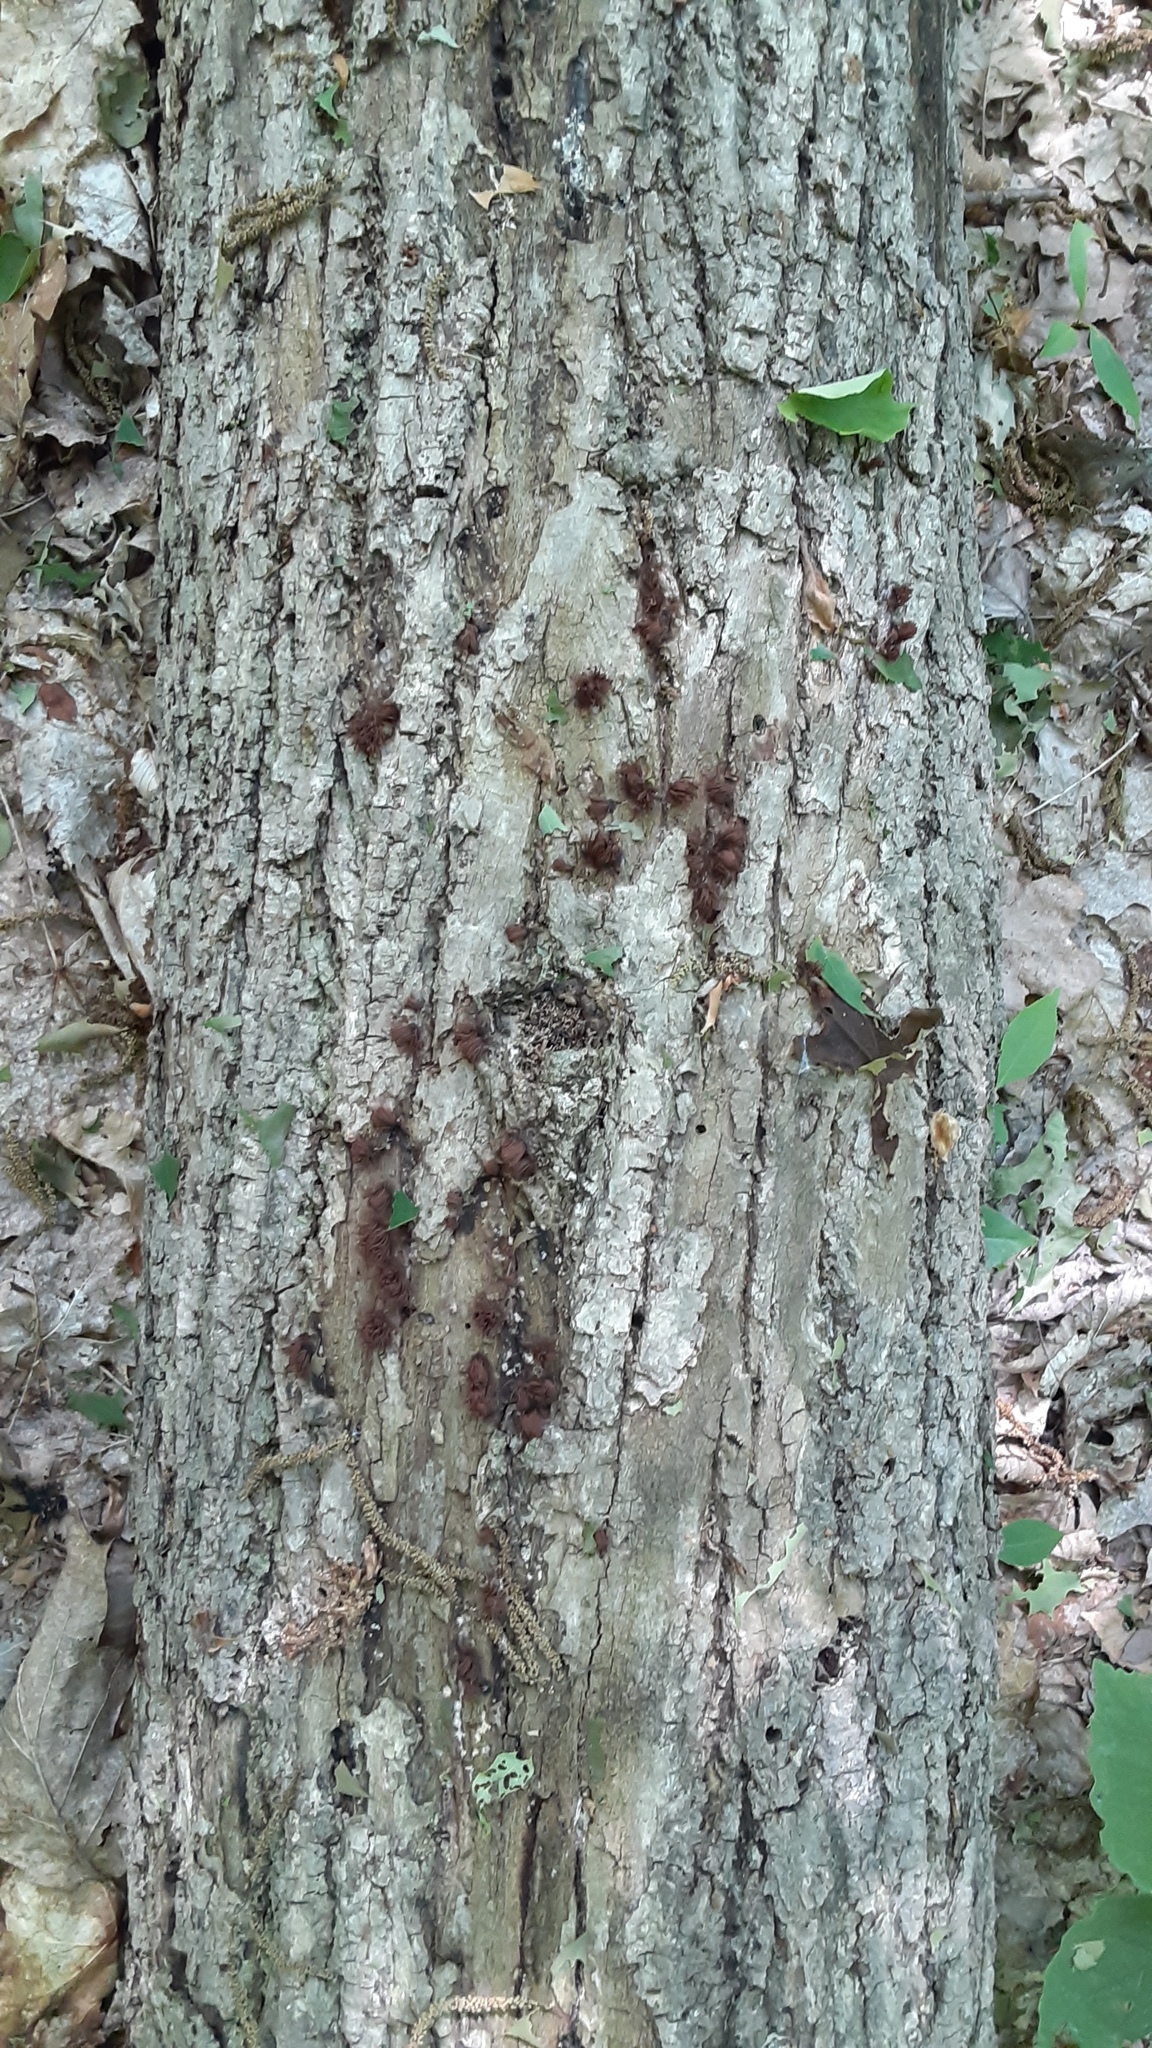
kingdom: Protozoa
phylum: Mycetozoa
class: Myxomycetes
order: Stemonitidales
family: Stemonitidaceae
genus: Stemonitis
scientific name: Stemonitis splendens
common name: Chocolate tube slime
